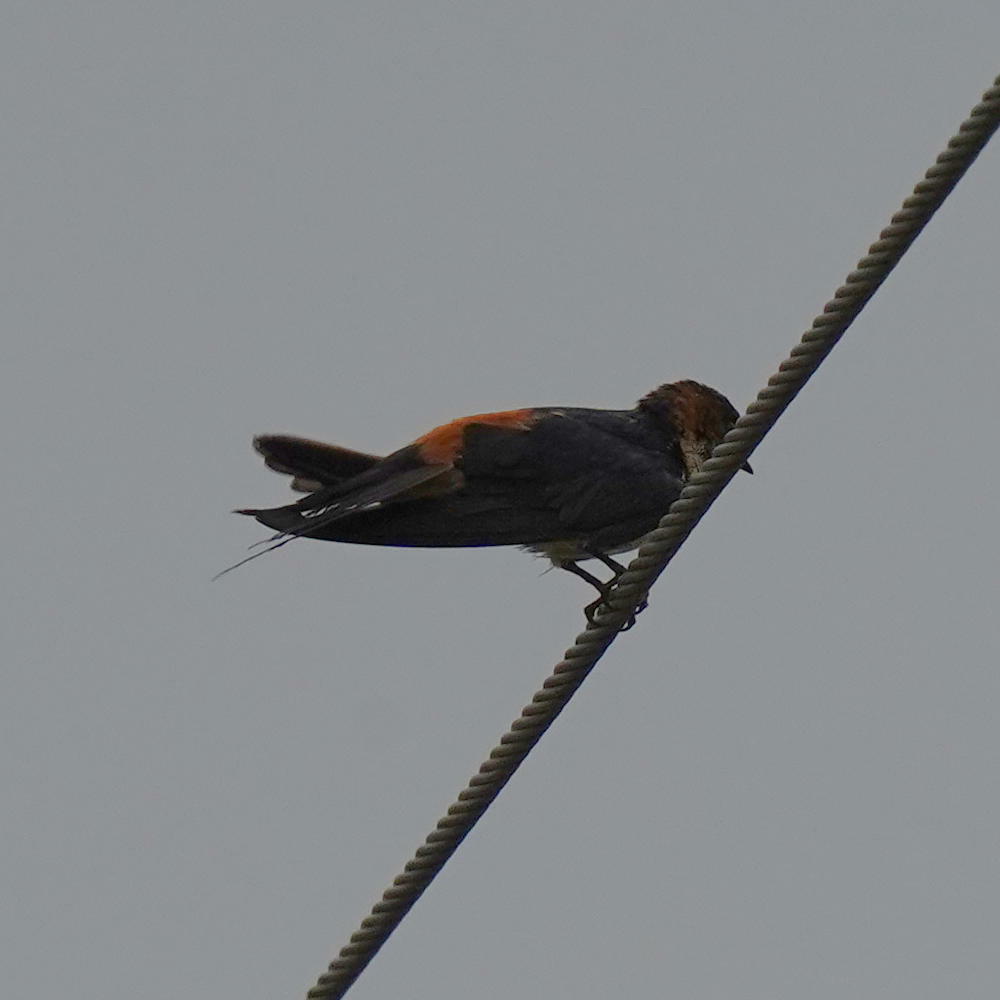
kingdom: Animalia
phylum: Chordata
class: Aves
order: Passeriformes
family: Hirundinidae
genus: Cecropis
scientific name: Cecropis daurica
